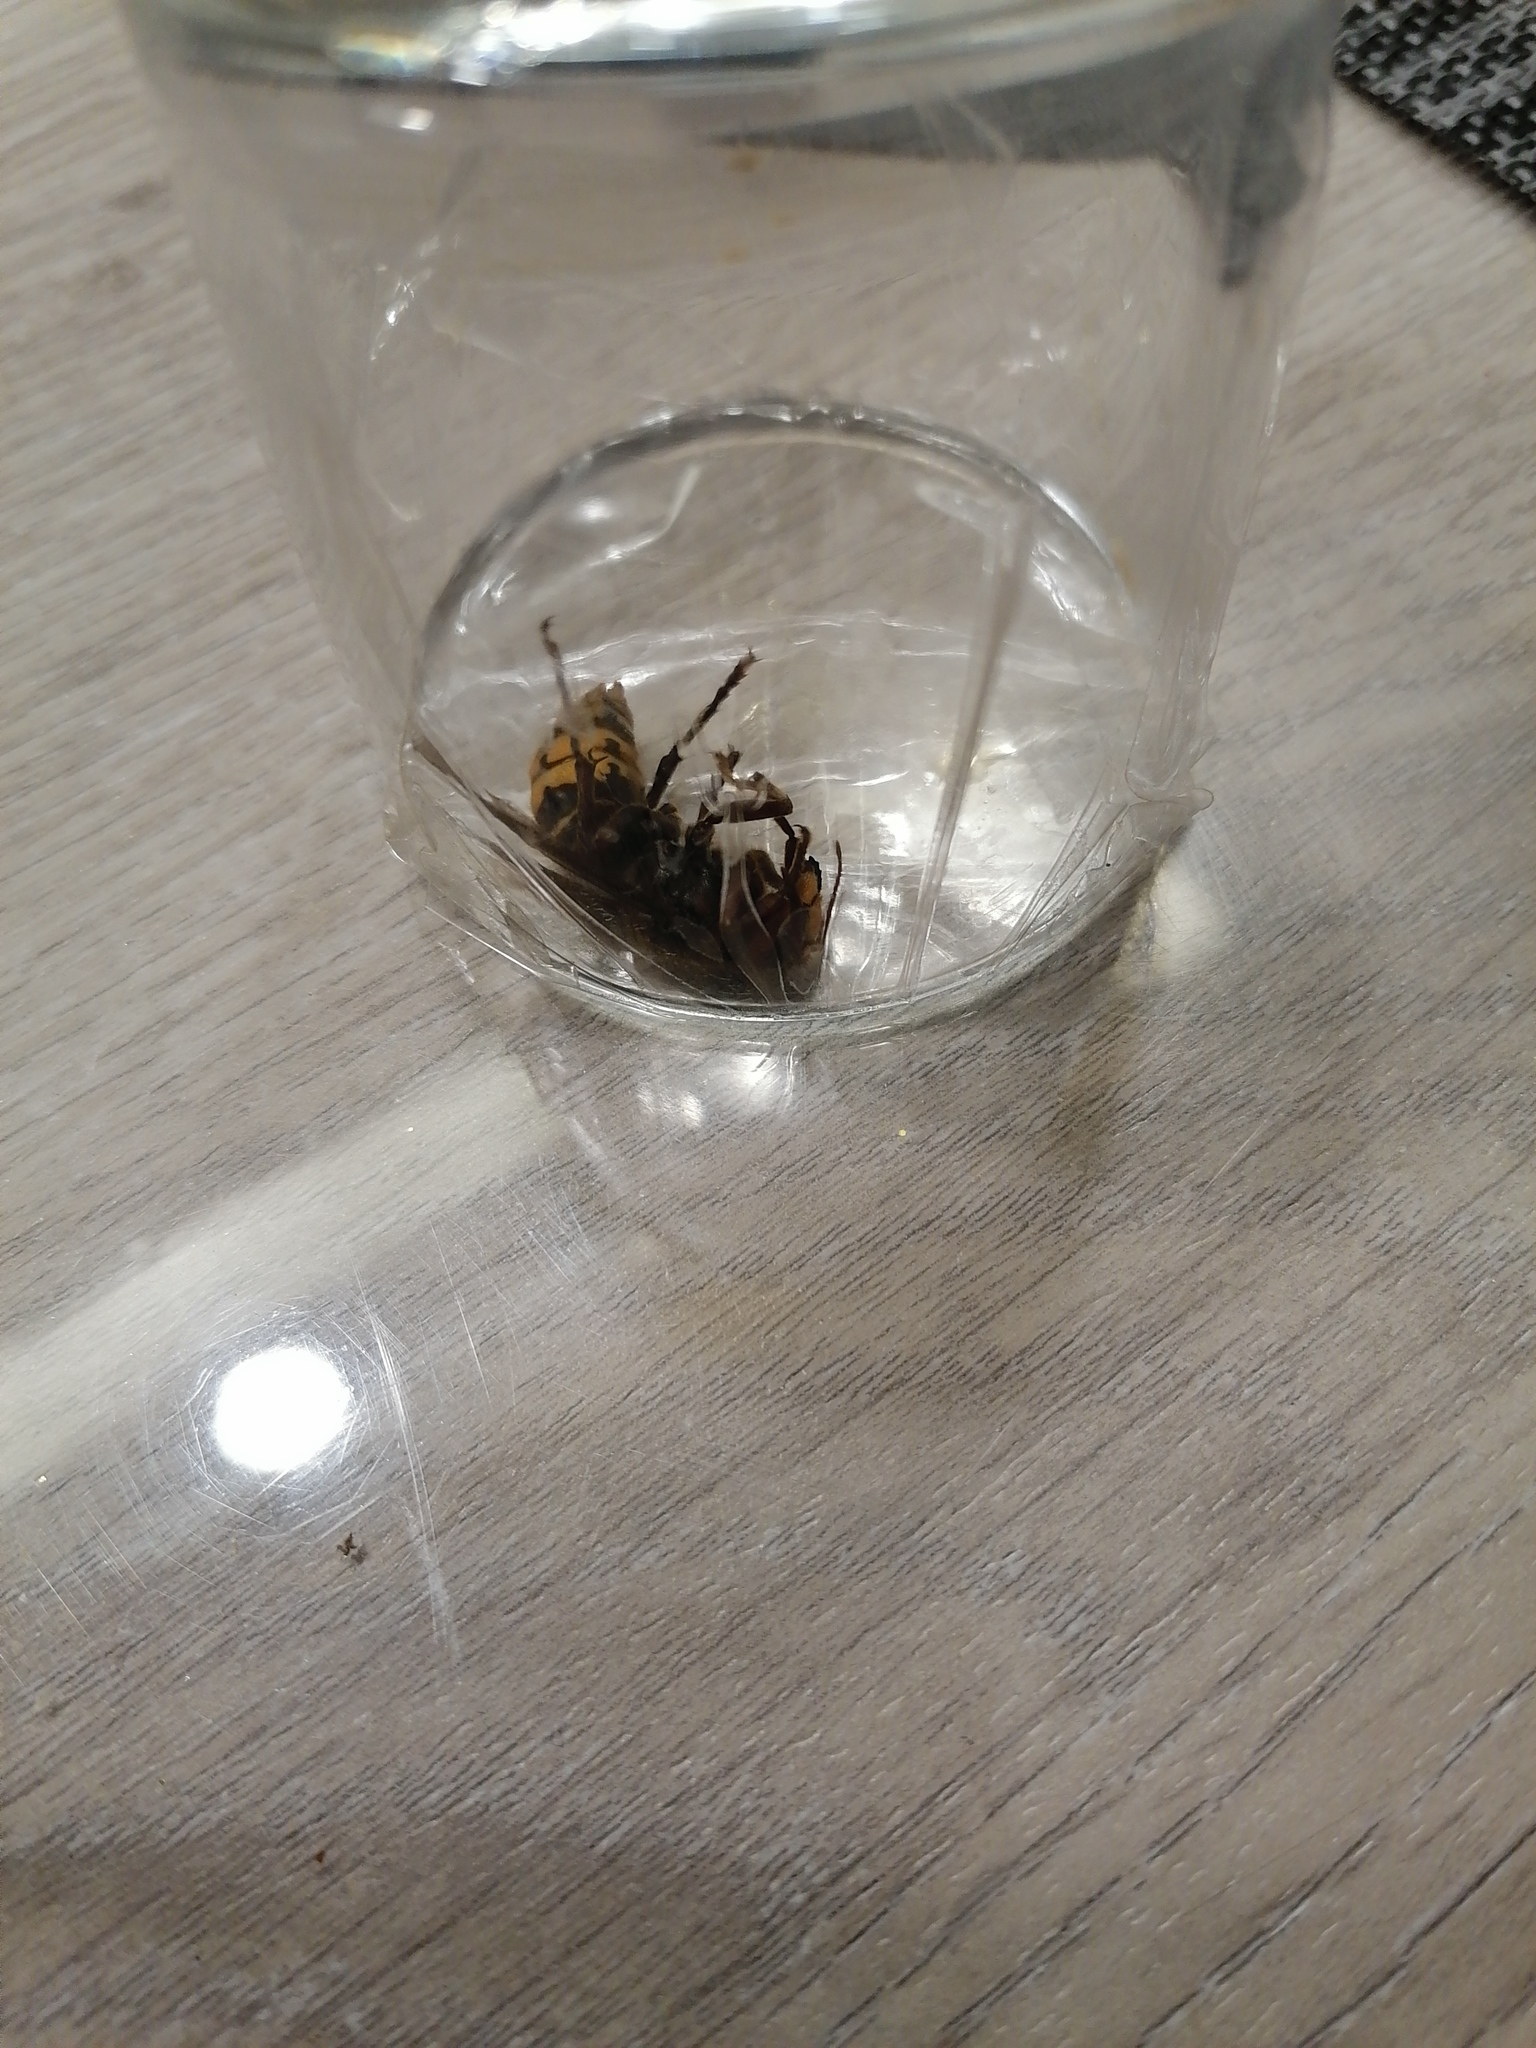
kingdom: Animalia
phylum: Arthropoda
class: Insecta
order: Hymenoptera
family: Vespidae
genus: Vespa
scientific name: Vespa crabro
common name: Hornet
